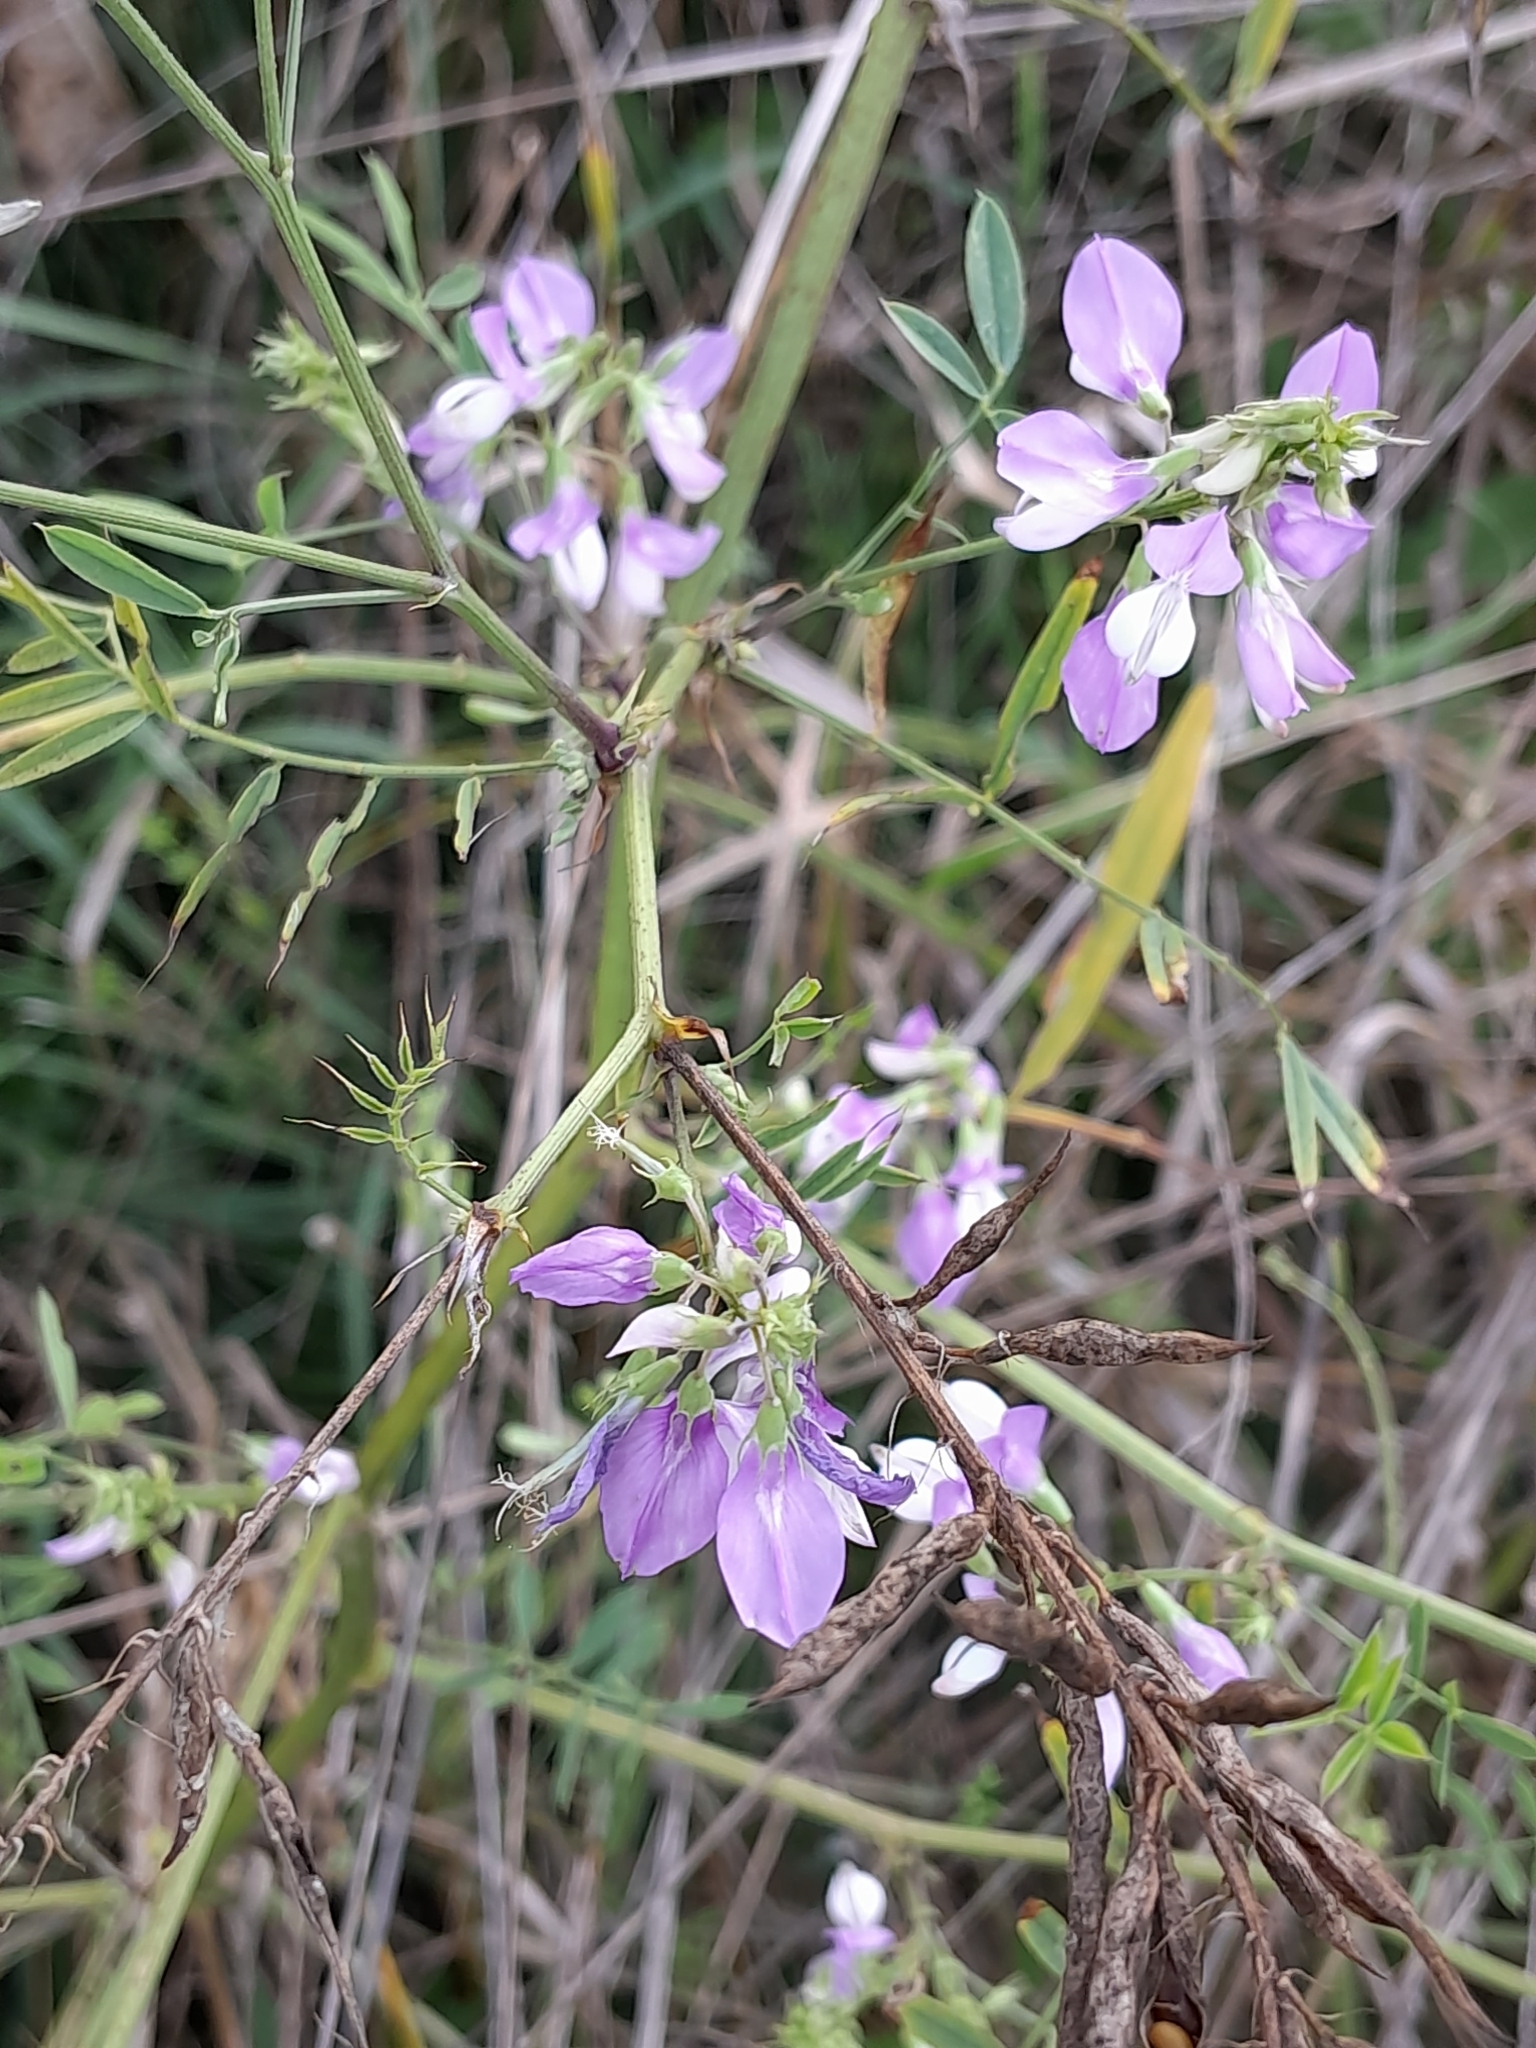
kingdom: Plantae
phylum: Tracheophyta
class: Magnoliopsida
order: Fabales
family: Fabaceae
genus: Galega
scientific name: Galega officinalis
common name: Goat's-rue
